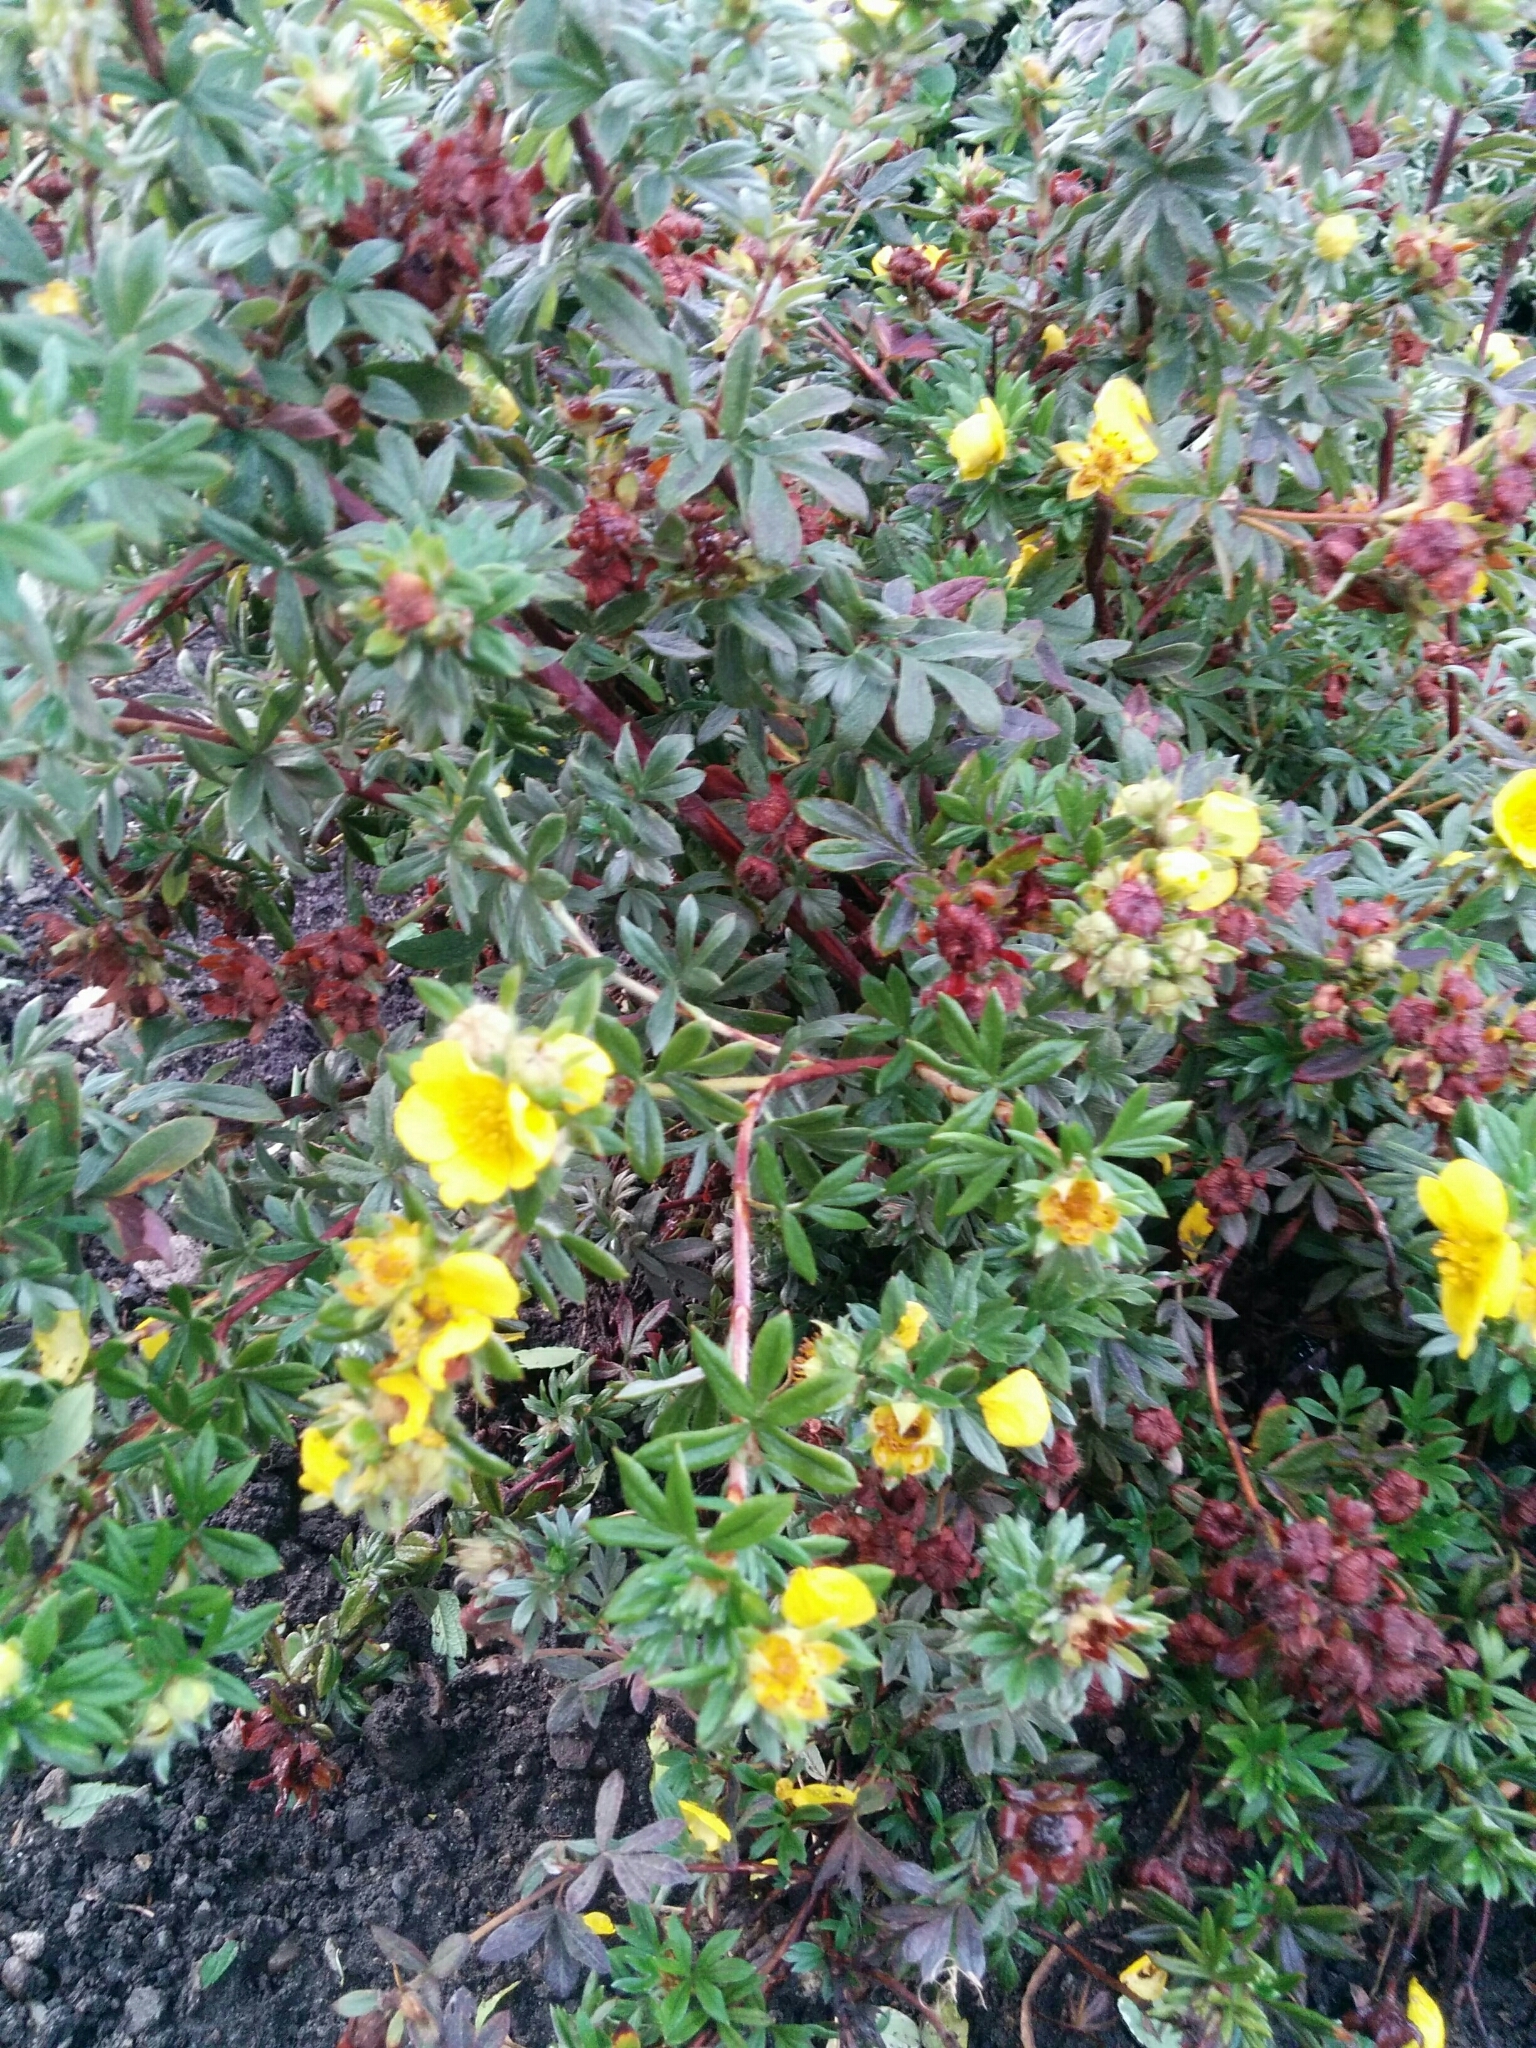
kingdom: Plantae
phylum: Tracheophyta
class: Magnoliopsida
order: Rosales
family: Rosaceae
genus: Dasiphora
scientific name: Dasiphora fruticosa
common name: Shrubby cinquefoil
